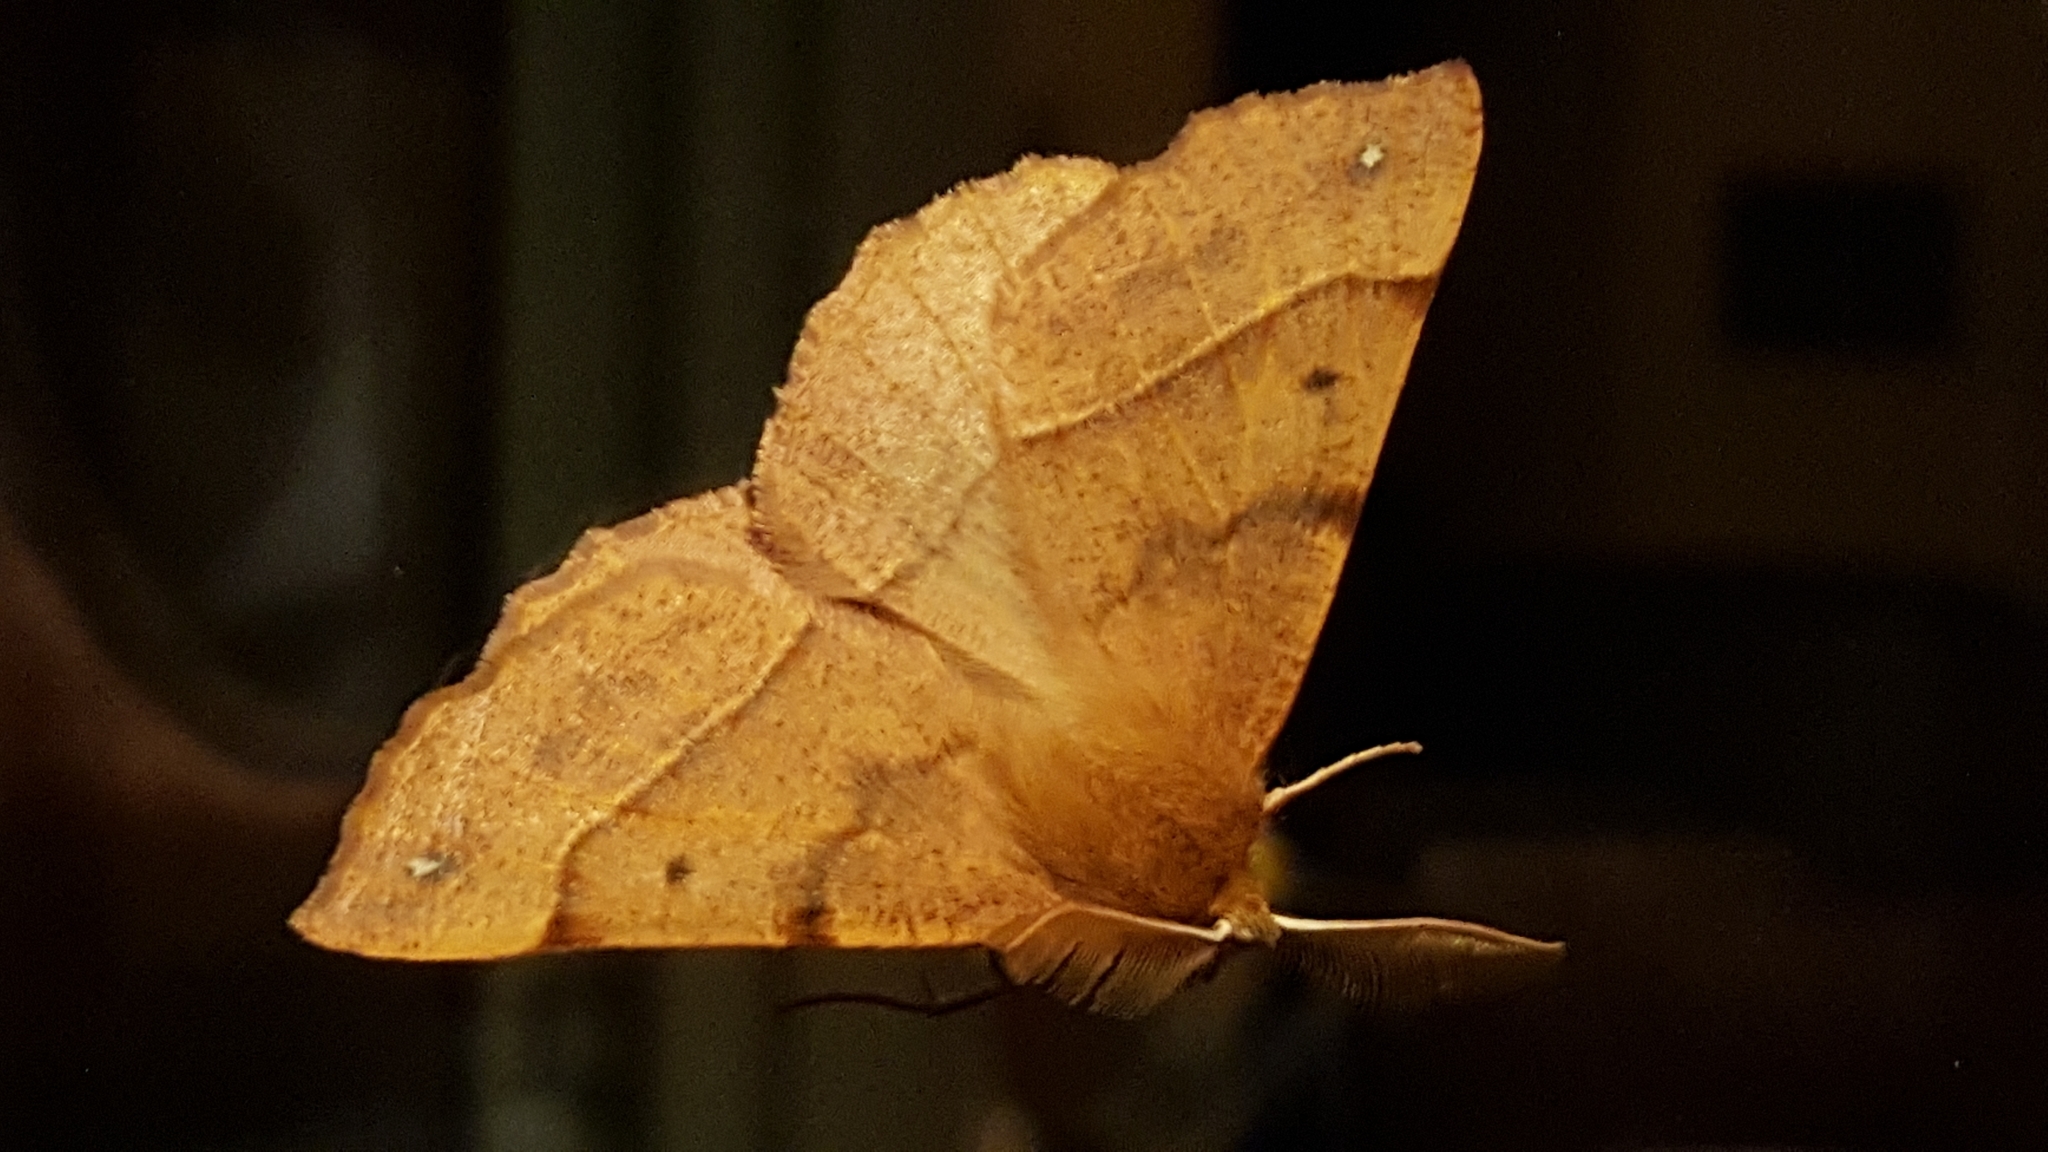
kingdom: Animalia
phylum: Arthropoda
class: Insecta
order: Lepidoptera
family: Geometridae
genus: Colotois
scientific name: Colotois pennaria
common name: Feathered thorn
